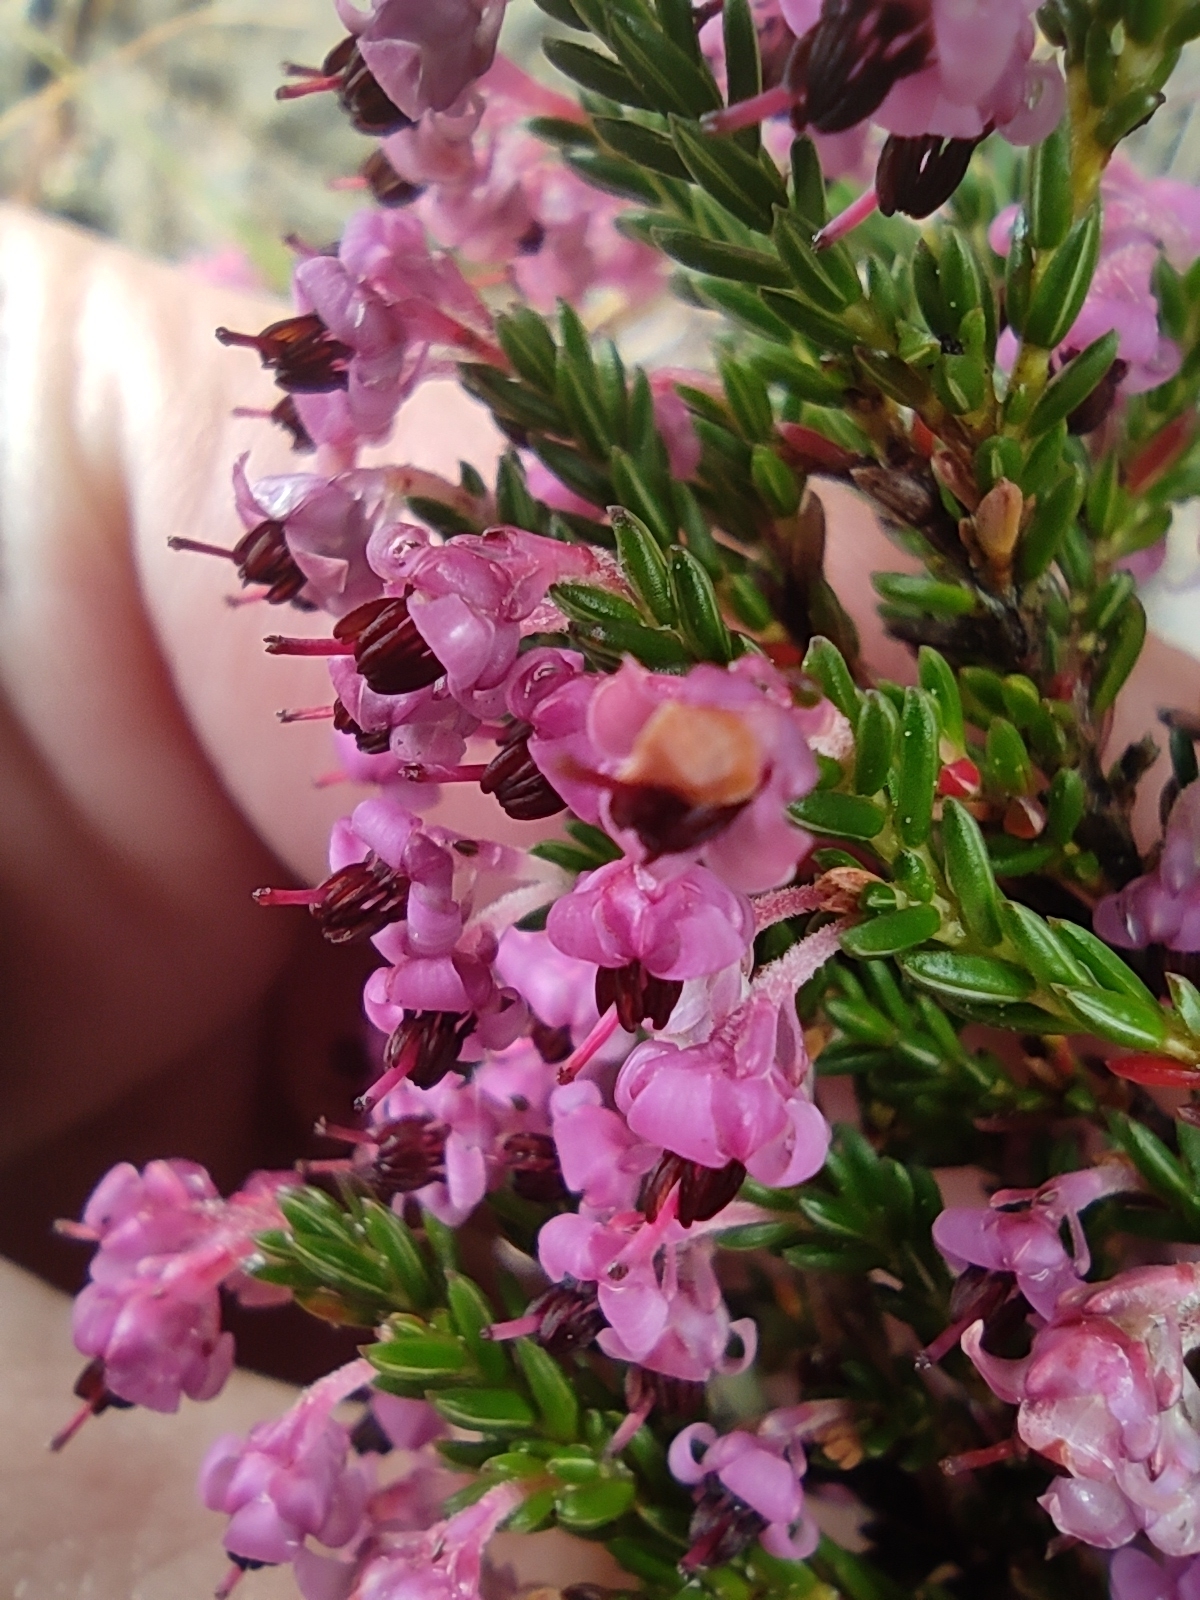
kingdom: Plantae
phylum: Tracheophyta
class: Magnoliopsida
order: Ericales
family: Ericaceae
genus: Erica
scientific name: Erica calycina
